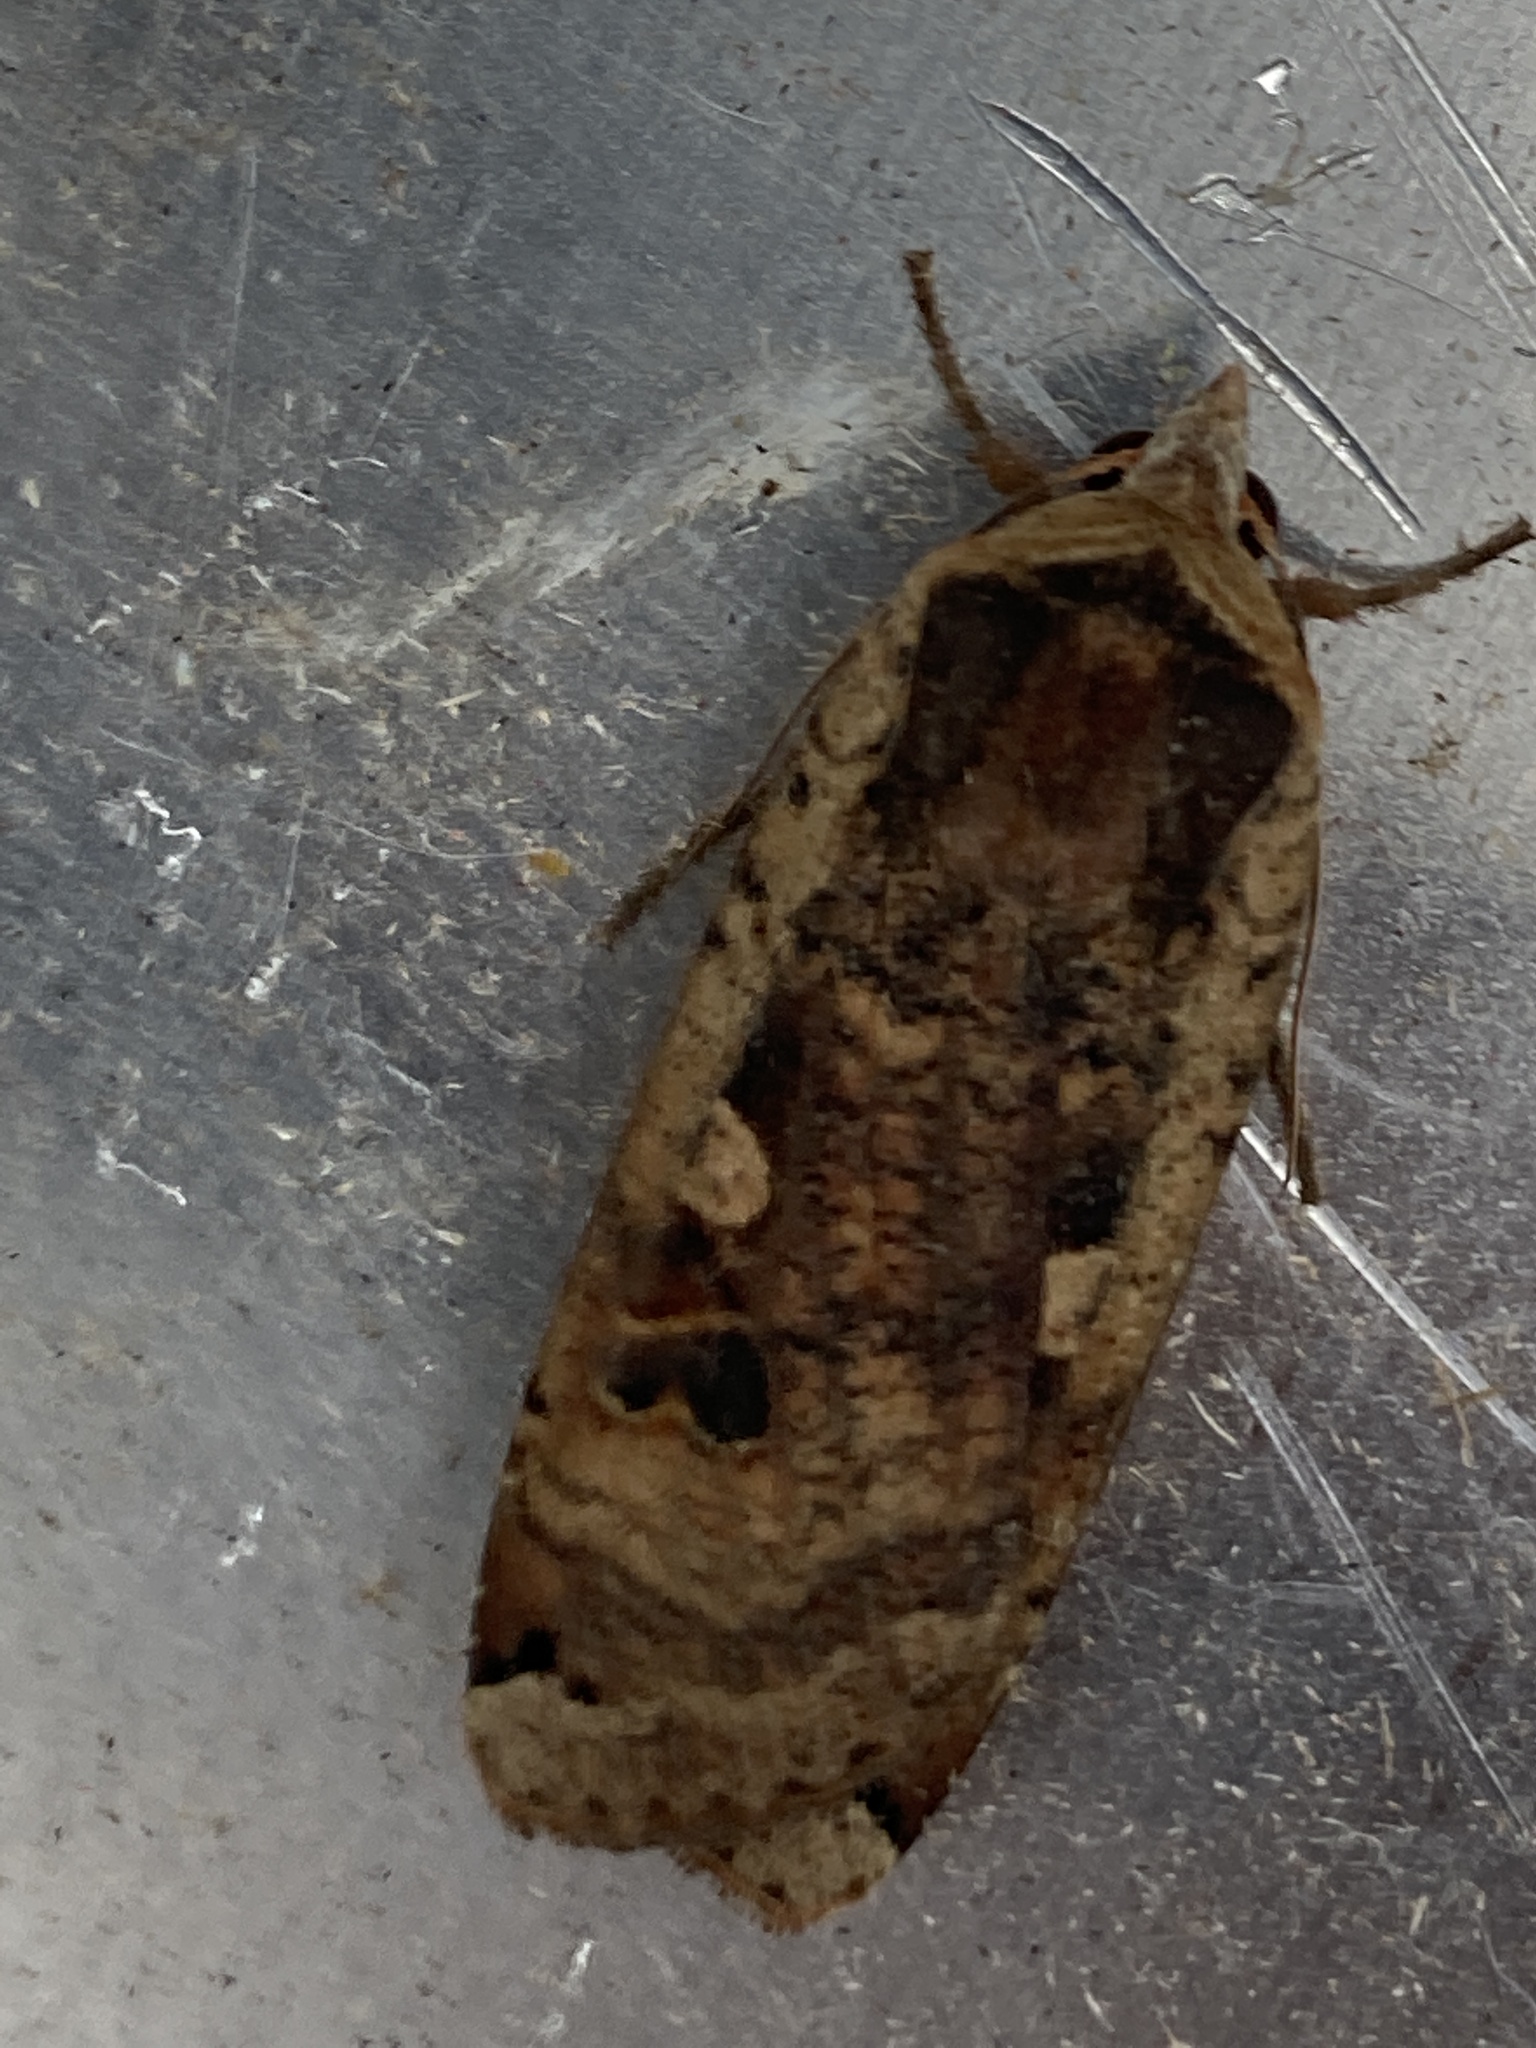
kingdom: Animalia
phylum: Arthropoda
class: Insecta
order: Lepidoptera
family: Noctuidae
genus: Noctua
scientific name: Noctua pronuba
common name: Large yellow underwing
